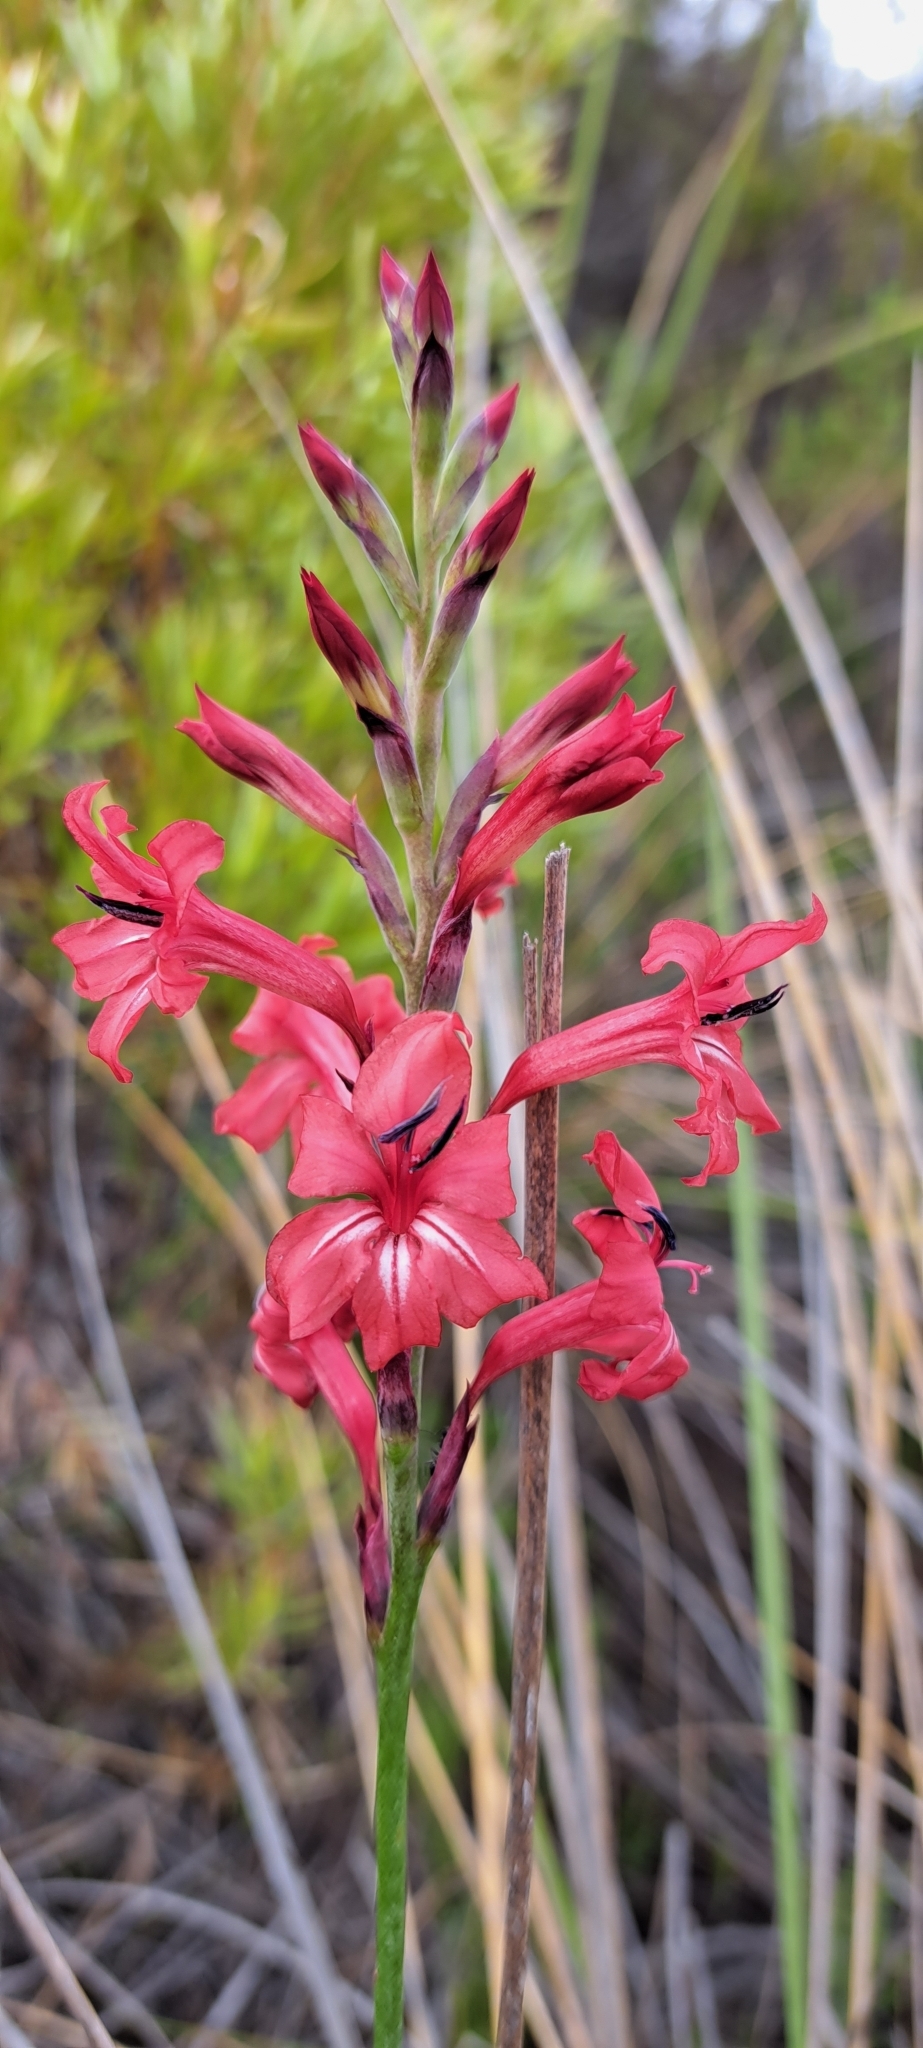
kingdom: Plantae
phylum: Tracheophyta
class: Liliopsida
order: Asparagales
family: Iridaceae
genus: Tritoniopsis
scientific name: Tritoniopsis pulchra
